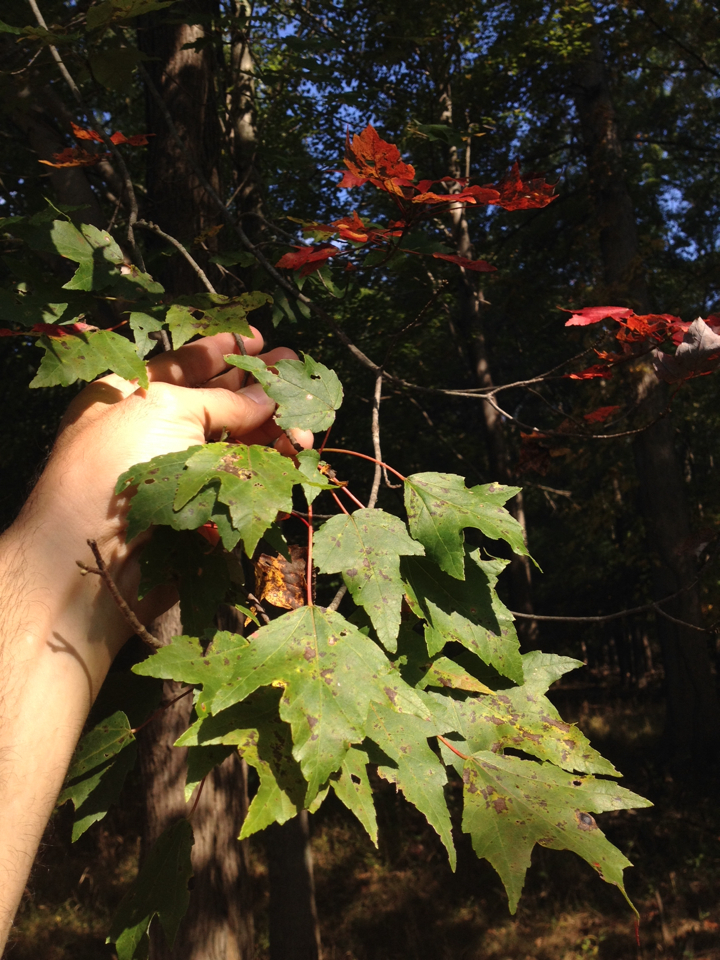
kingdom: Plantae
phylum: Tracheophyta
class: Magnoliopsida
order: Sapindales
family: Sapindaceae
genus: Acer
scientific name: Acer rubrum
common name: Red maple
